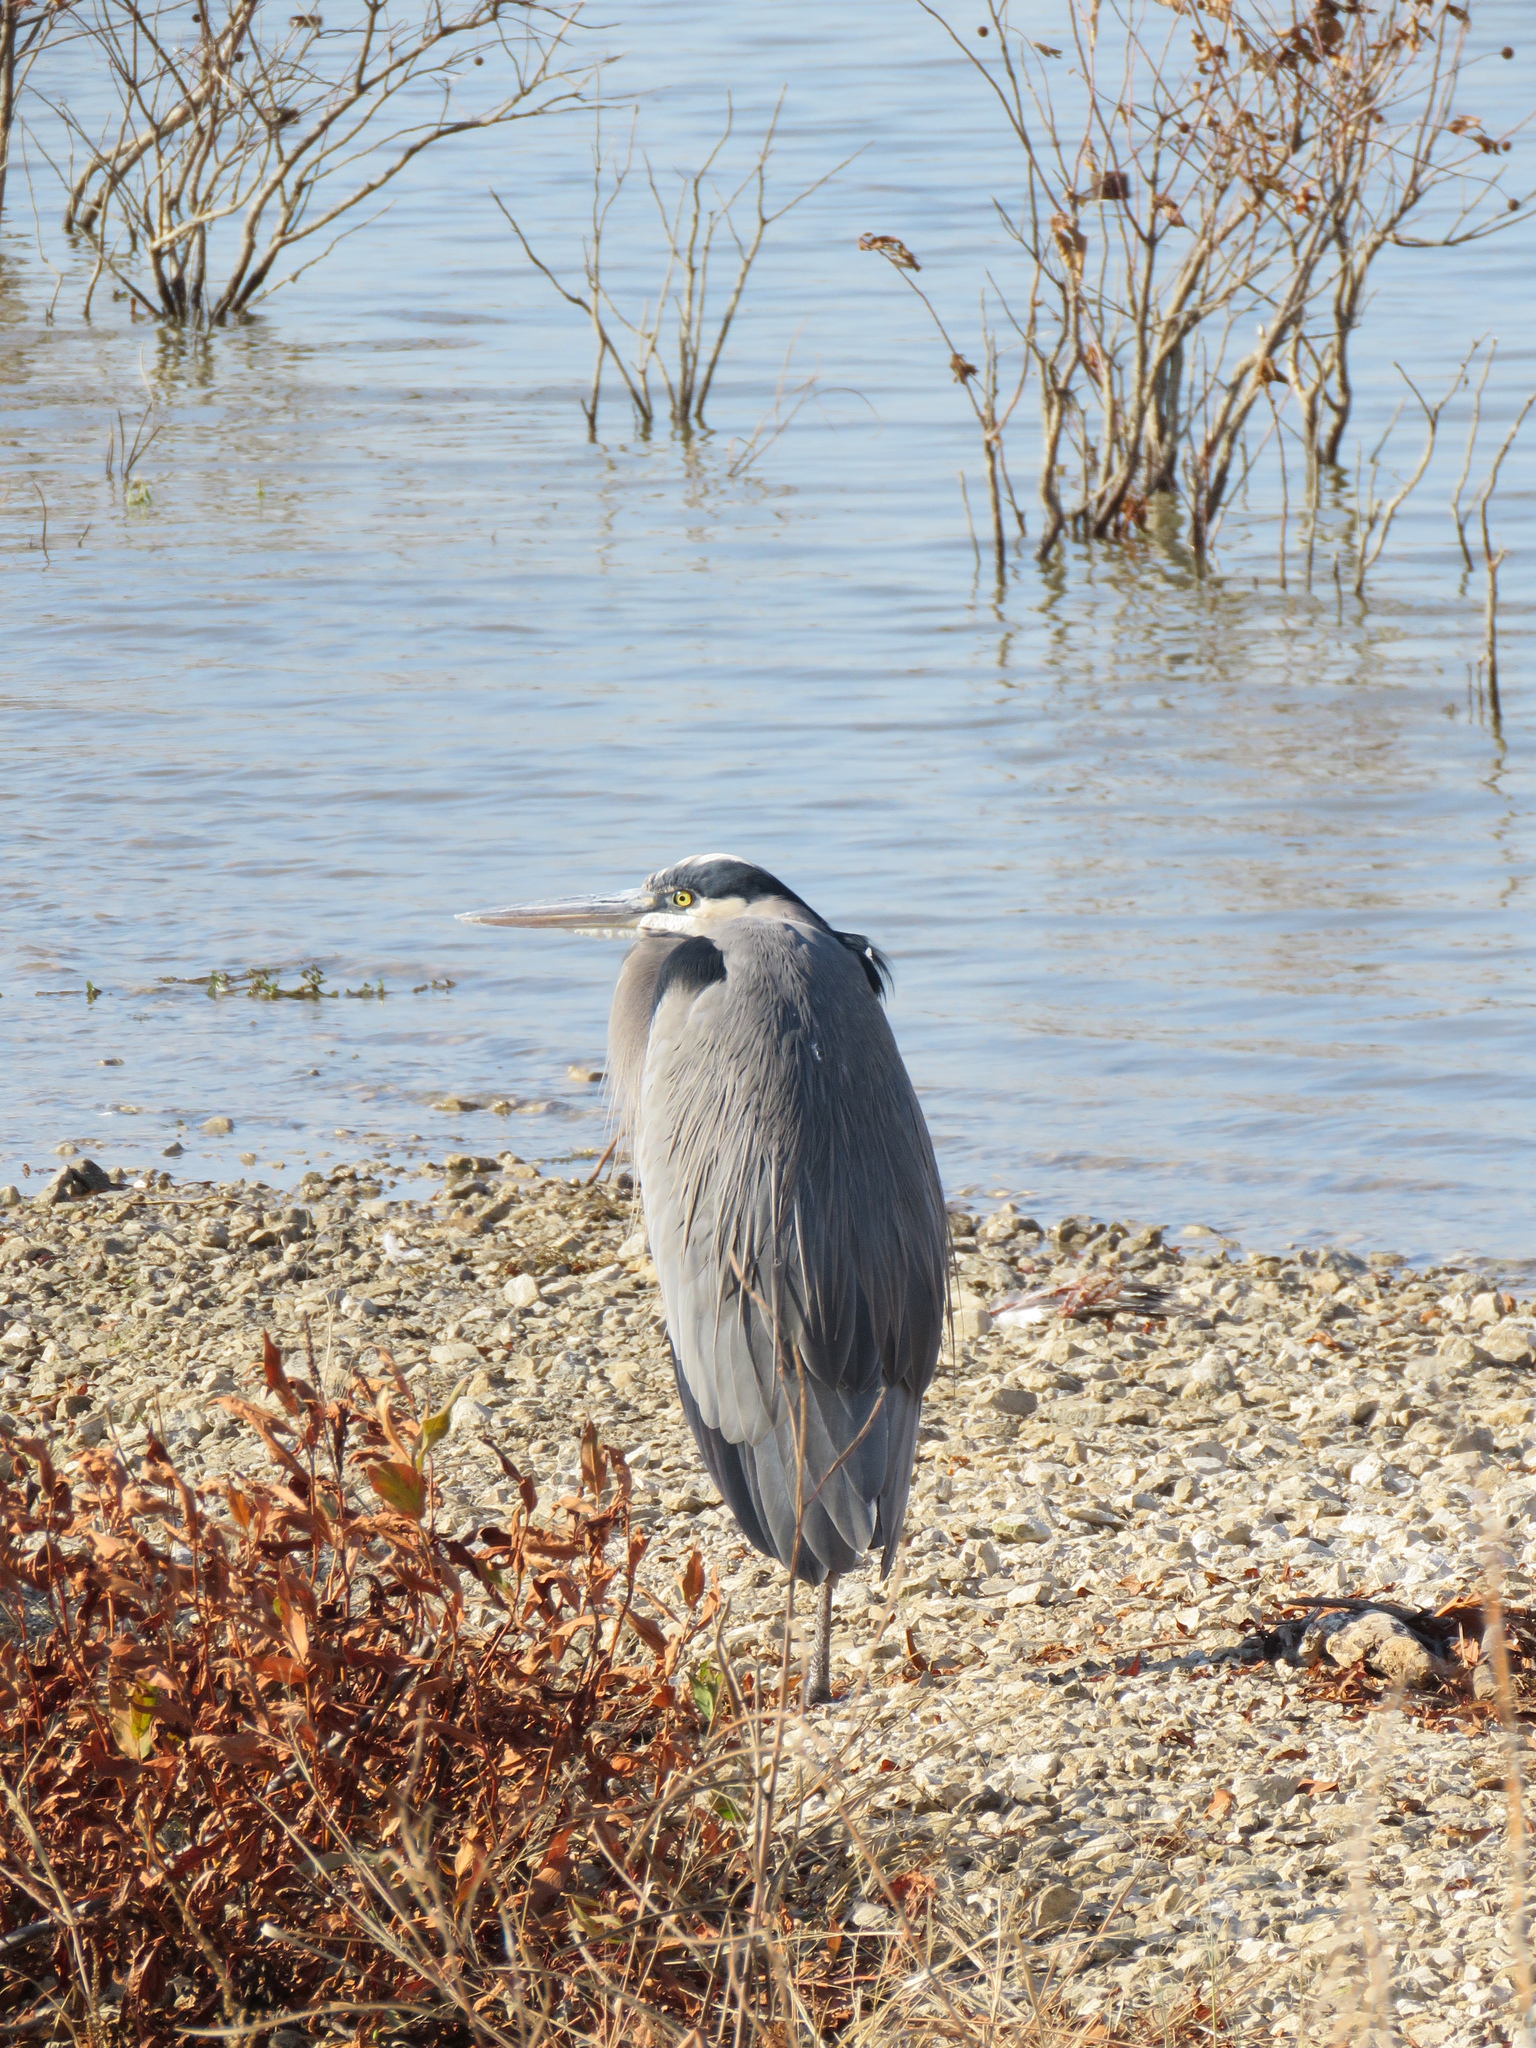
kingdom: Animalia
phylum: Chordata
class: Aves
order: Pelecaniformes
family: Ardeidae
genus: Ardea
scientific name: Ardea herodias
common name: Great blue heron
